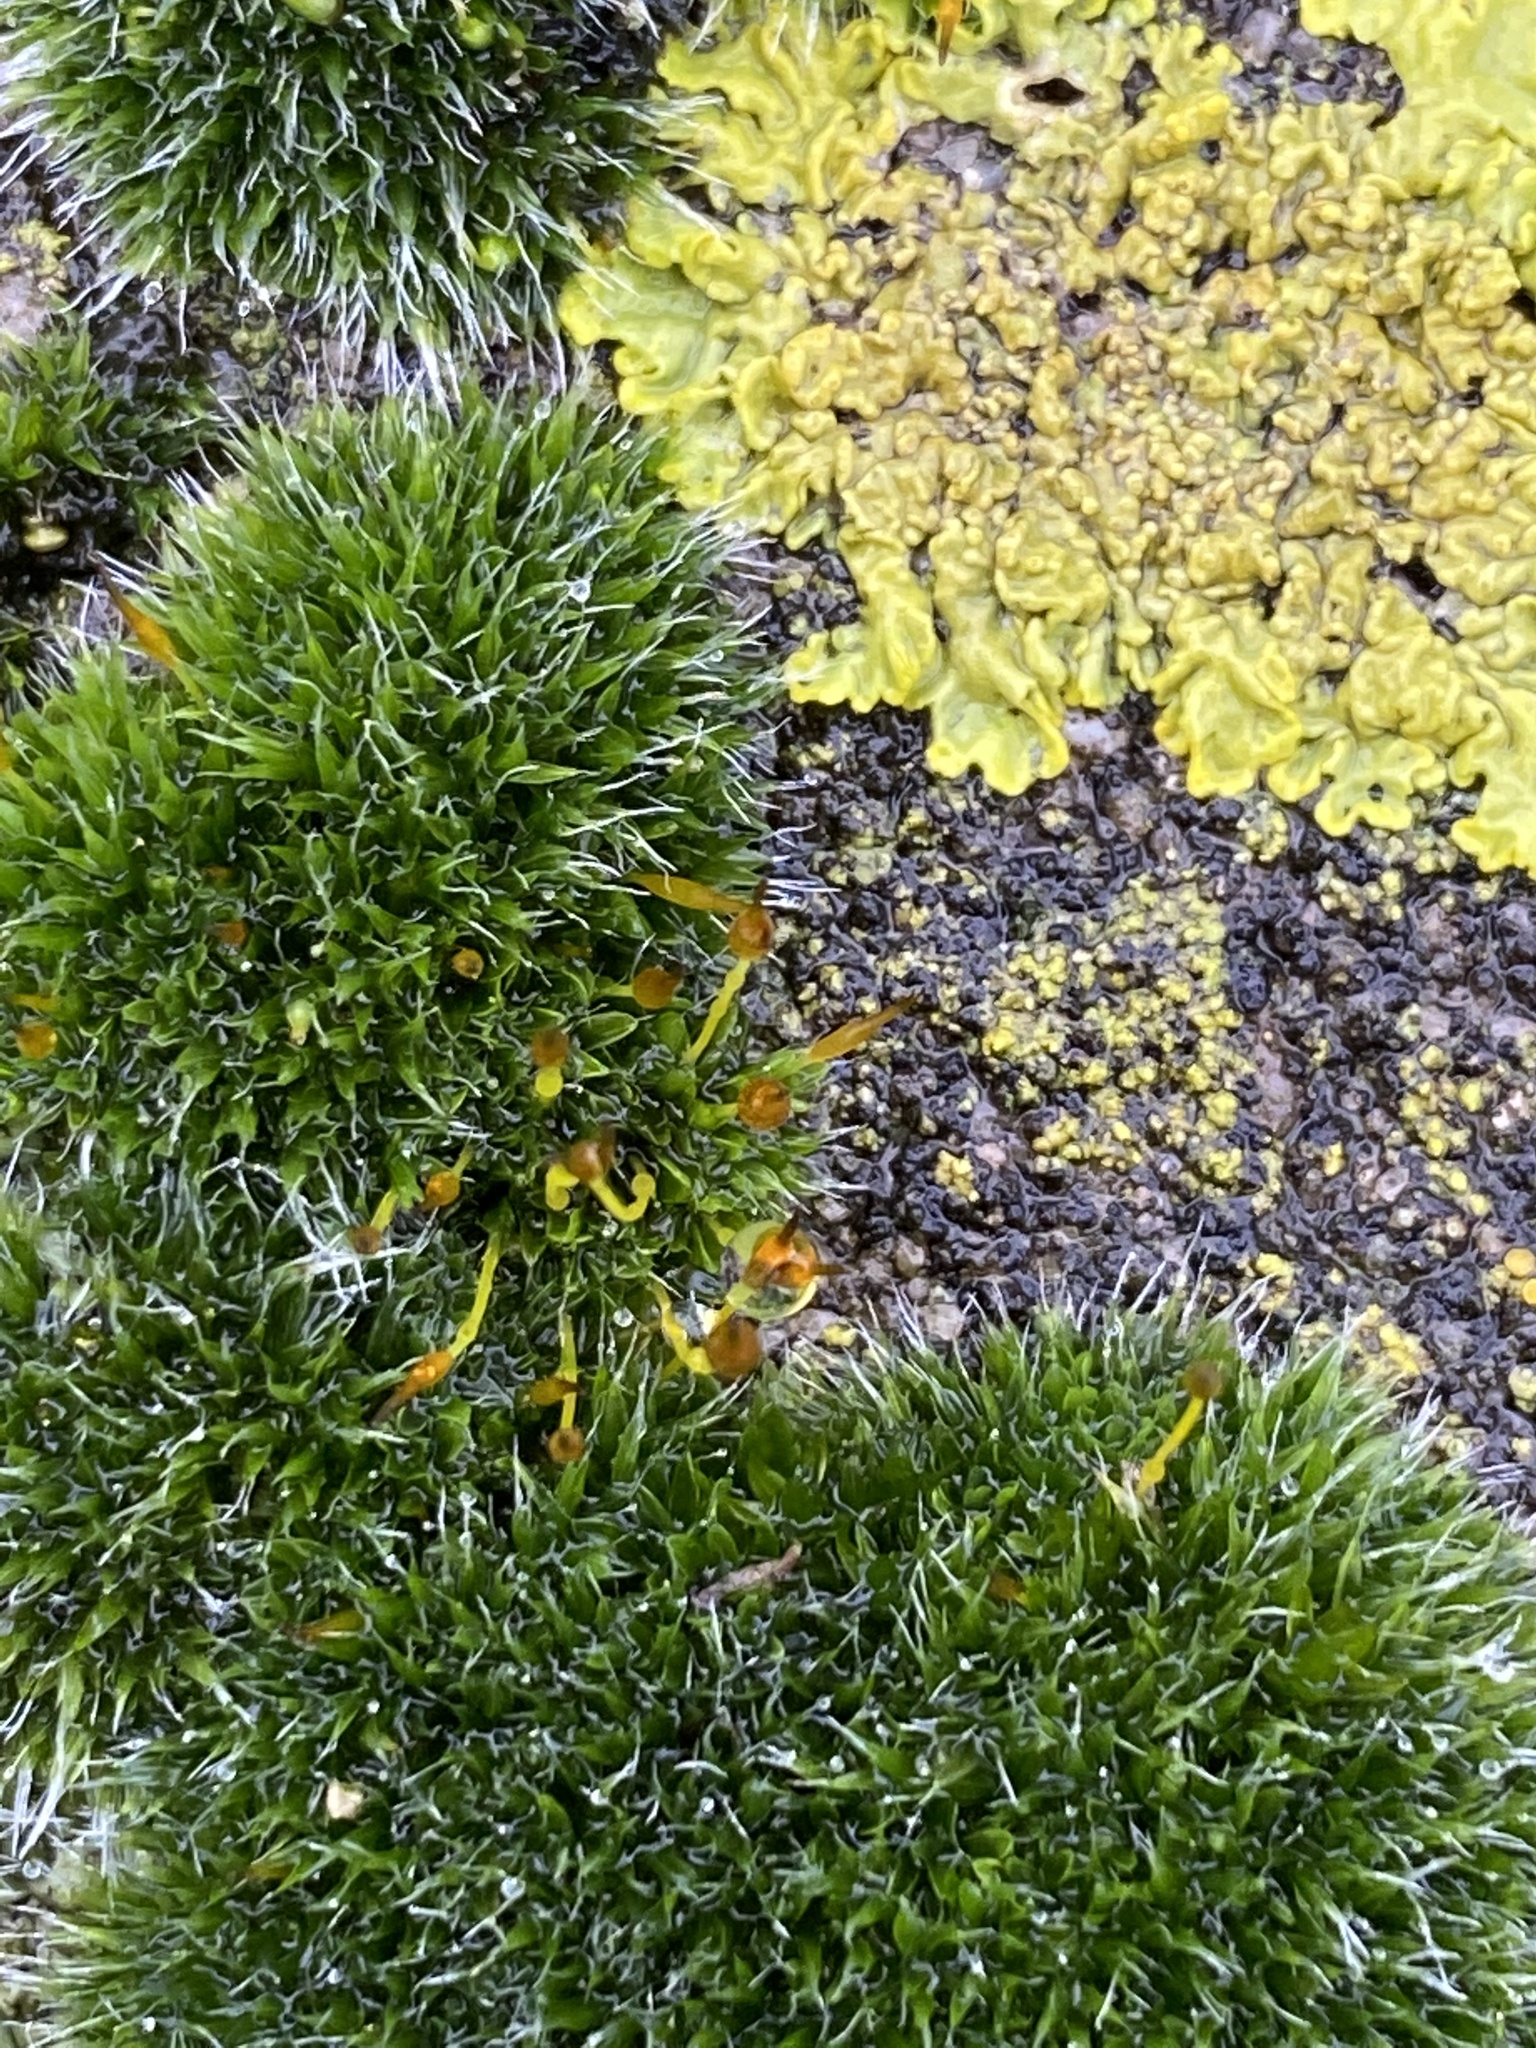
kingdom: Plantae
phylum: Bryophyta
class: Bryopsida
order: Grimmiales
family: Grimmiaceae
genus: Grimmia
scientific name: Grimmia pulvinata
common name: Grey-cushioned grimmia
